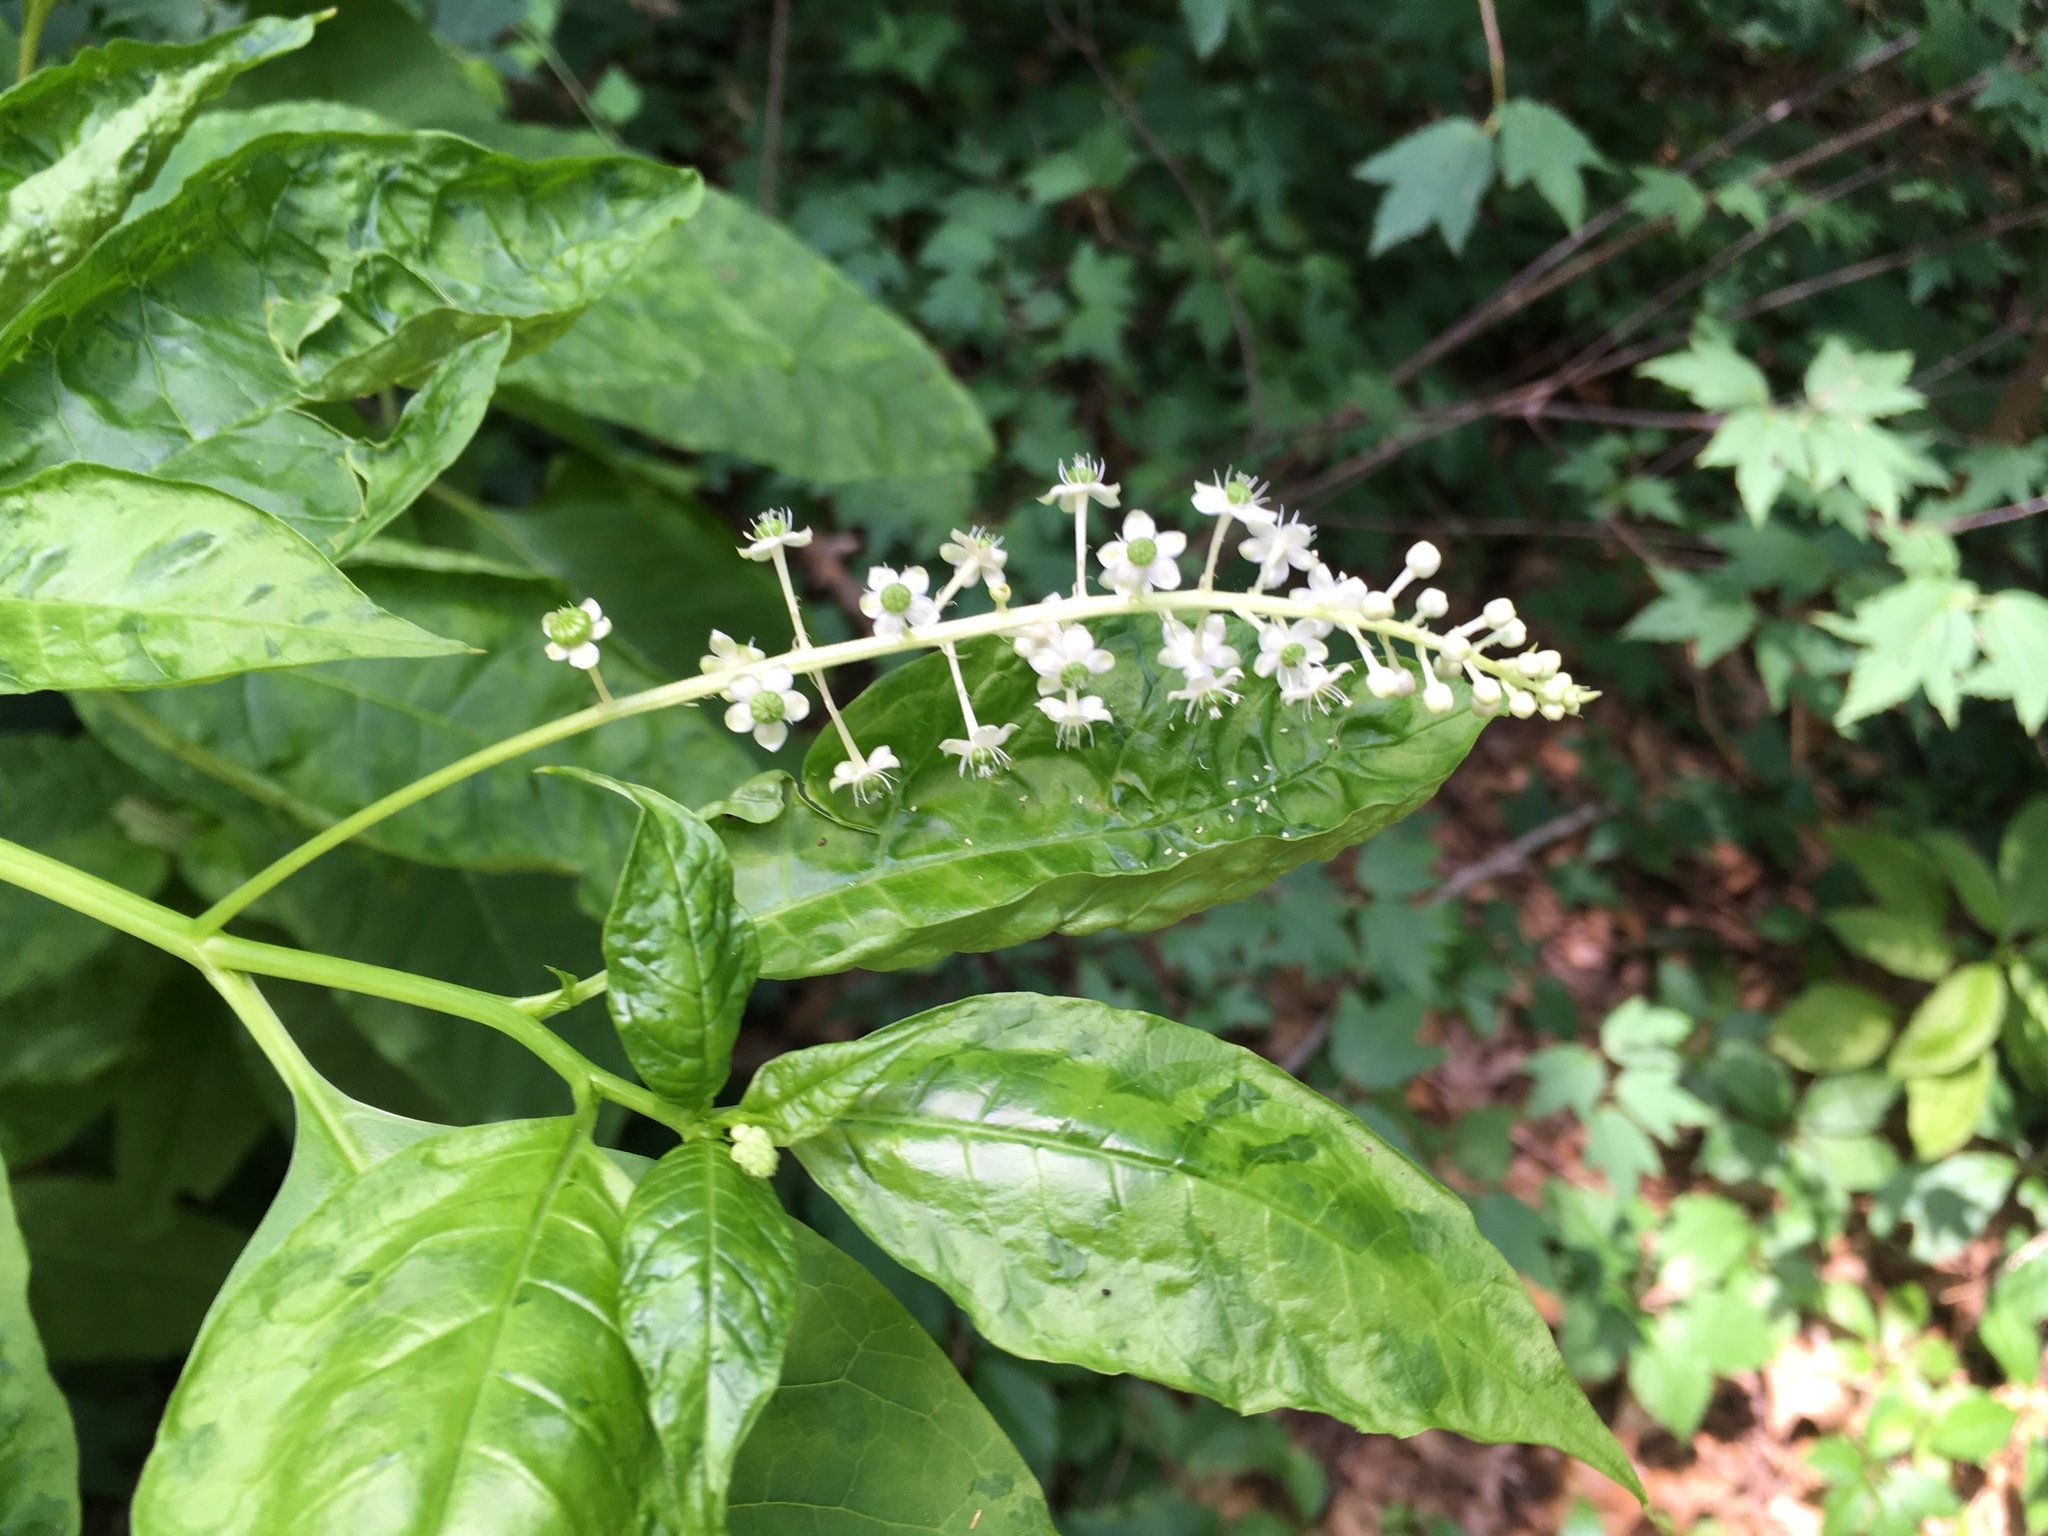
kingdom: Plantae
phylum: Tracheophyta
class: Magnoliopsida
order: Caryophyllales
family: Phytolaccaceae
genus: Phytolacca
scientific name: Phytolacca americana
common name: American pokeweed
